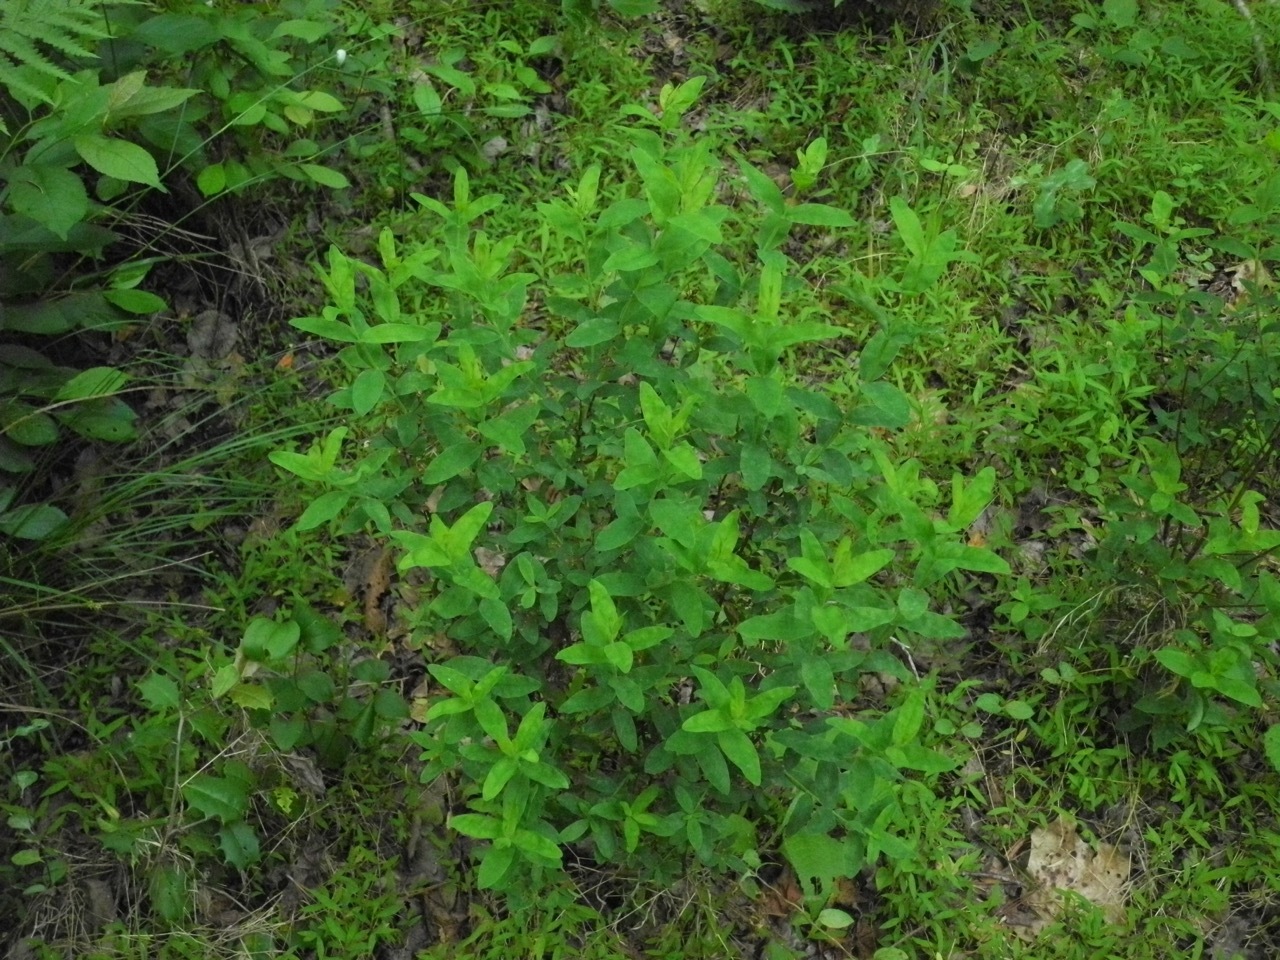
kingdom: Plantae
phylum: Tracheophyta
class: Magnoliopsida
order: Malpighiales
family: Hypericaceae
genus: Triadenum
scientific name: Triadenum virginicum
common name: Marsh st. john's-wort
